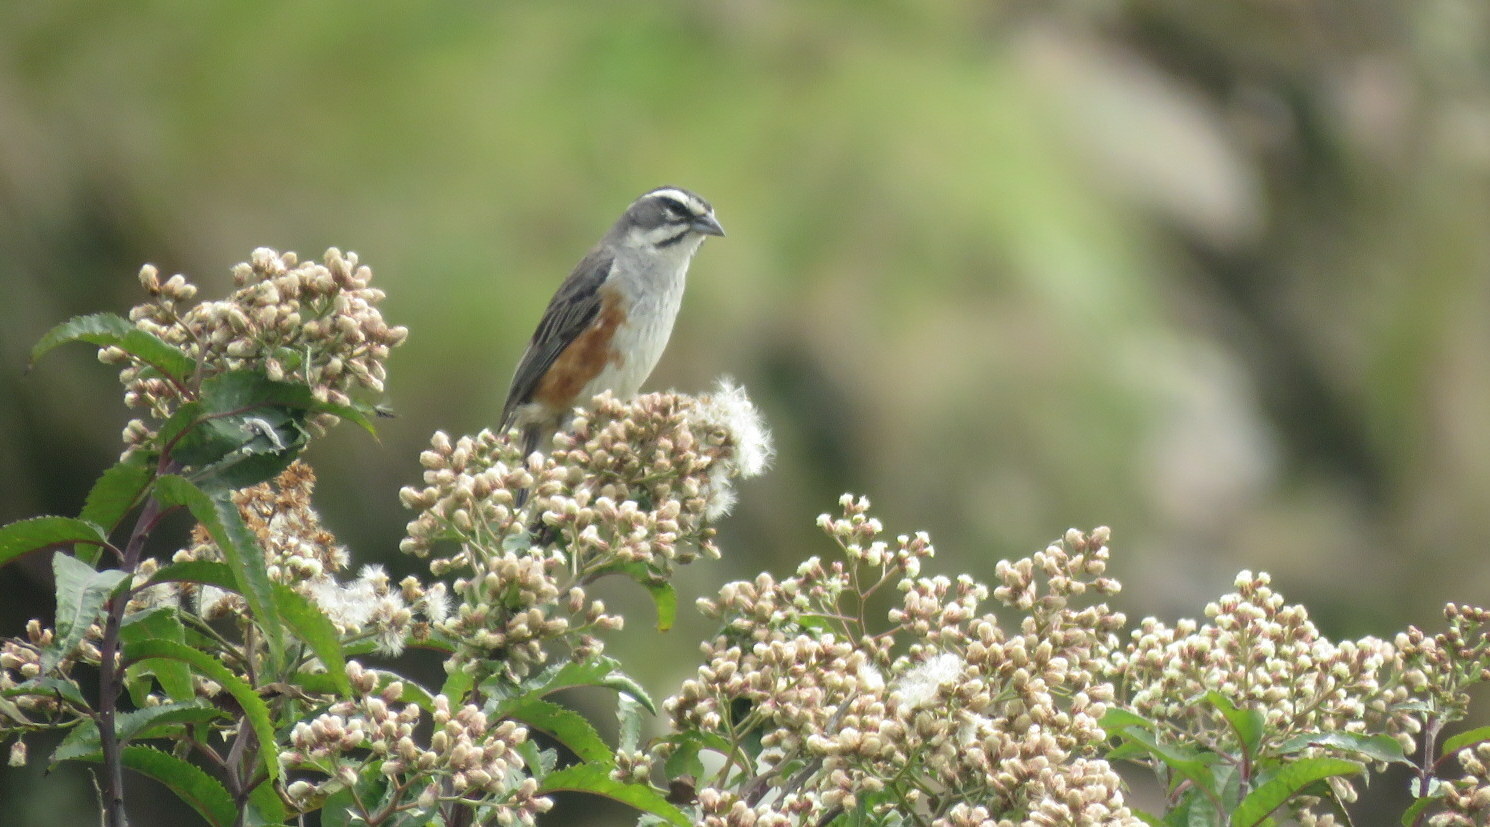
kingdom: Animalia
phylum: Chordata
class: Aves
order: Passeriformes
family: Thraupidae
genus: Poospizopsis
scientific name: Poospizopsis hypocondria
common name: Rufous-sided warbling-finch
